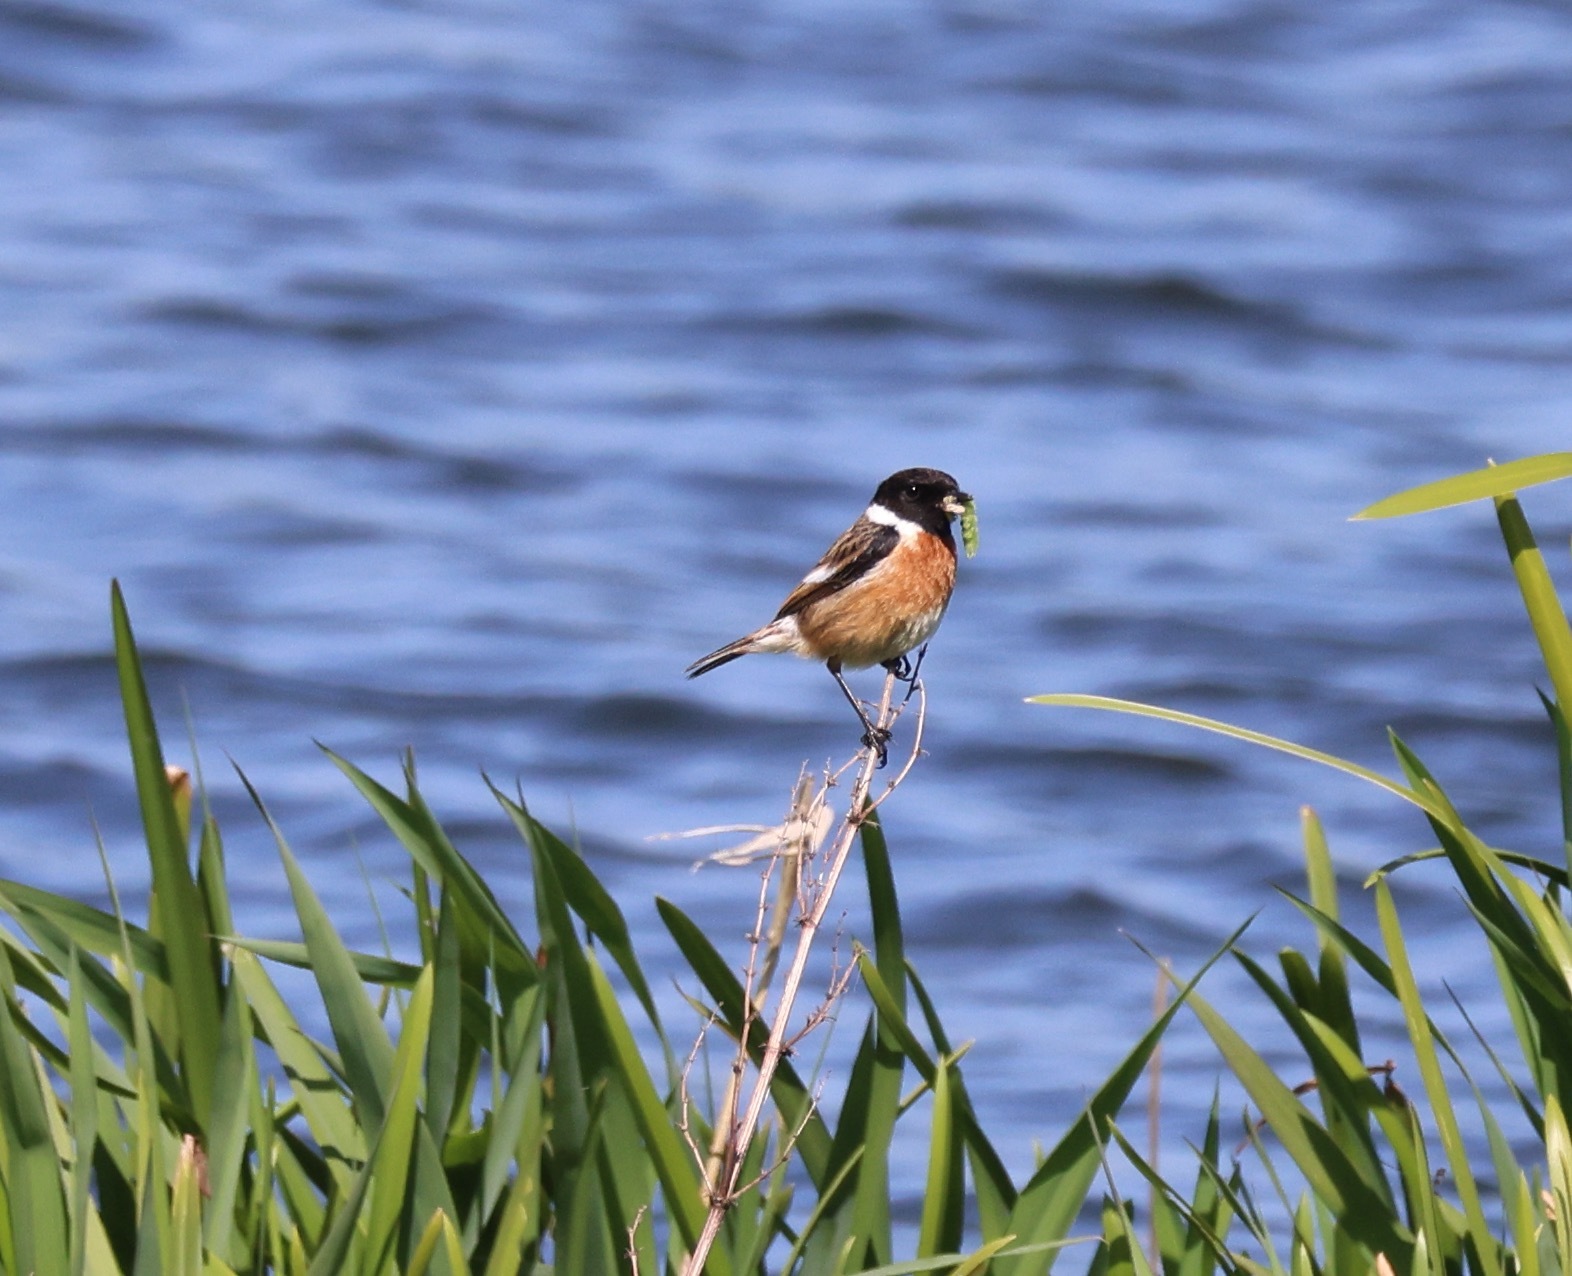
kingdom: Animalia
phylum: Chordata
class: Aves
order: Passeriformes
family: Muscicapidae
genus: Saxicola
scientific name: Saxicola rubicola
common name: European stonechat
